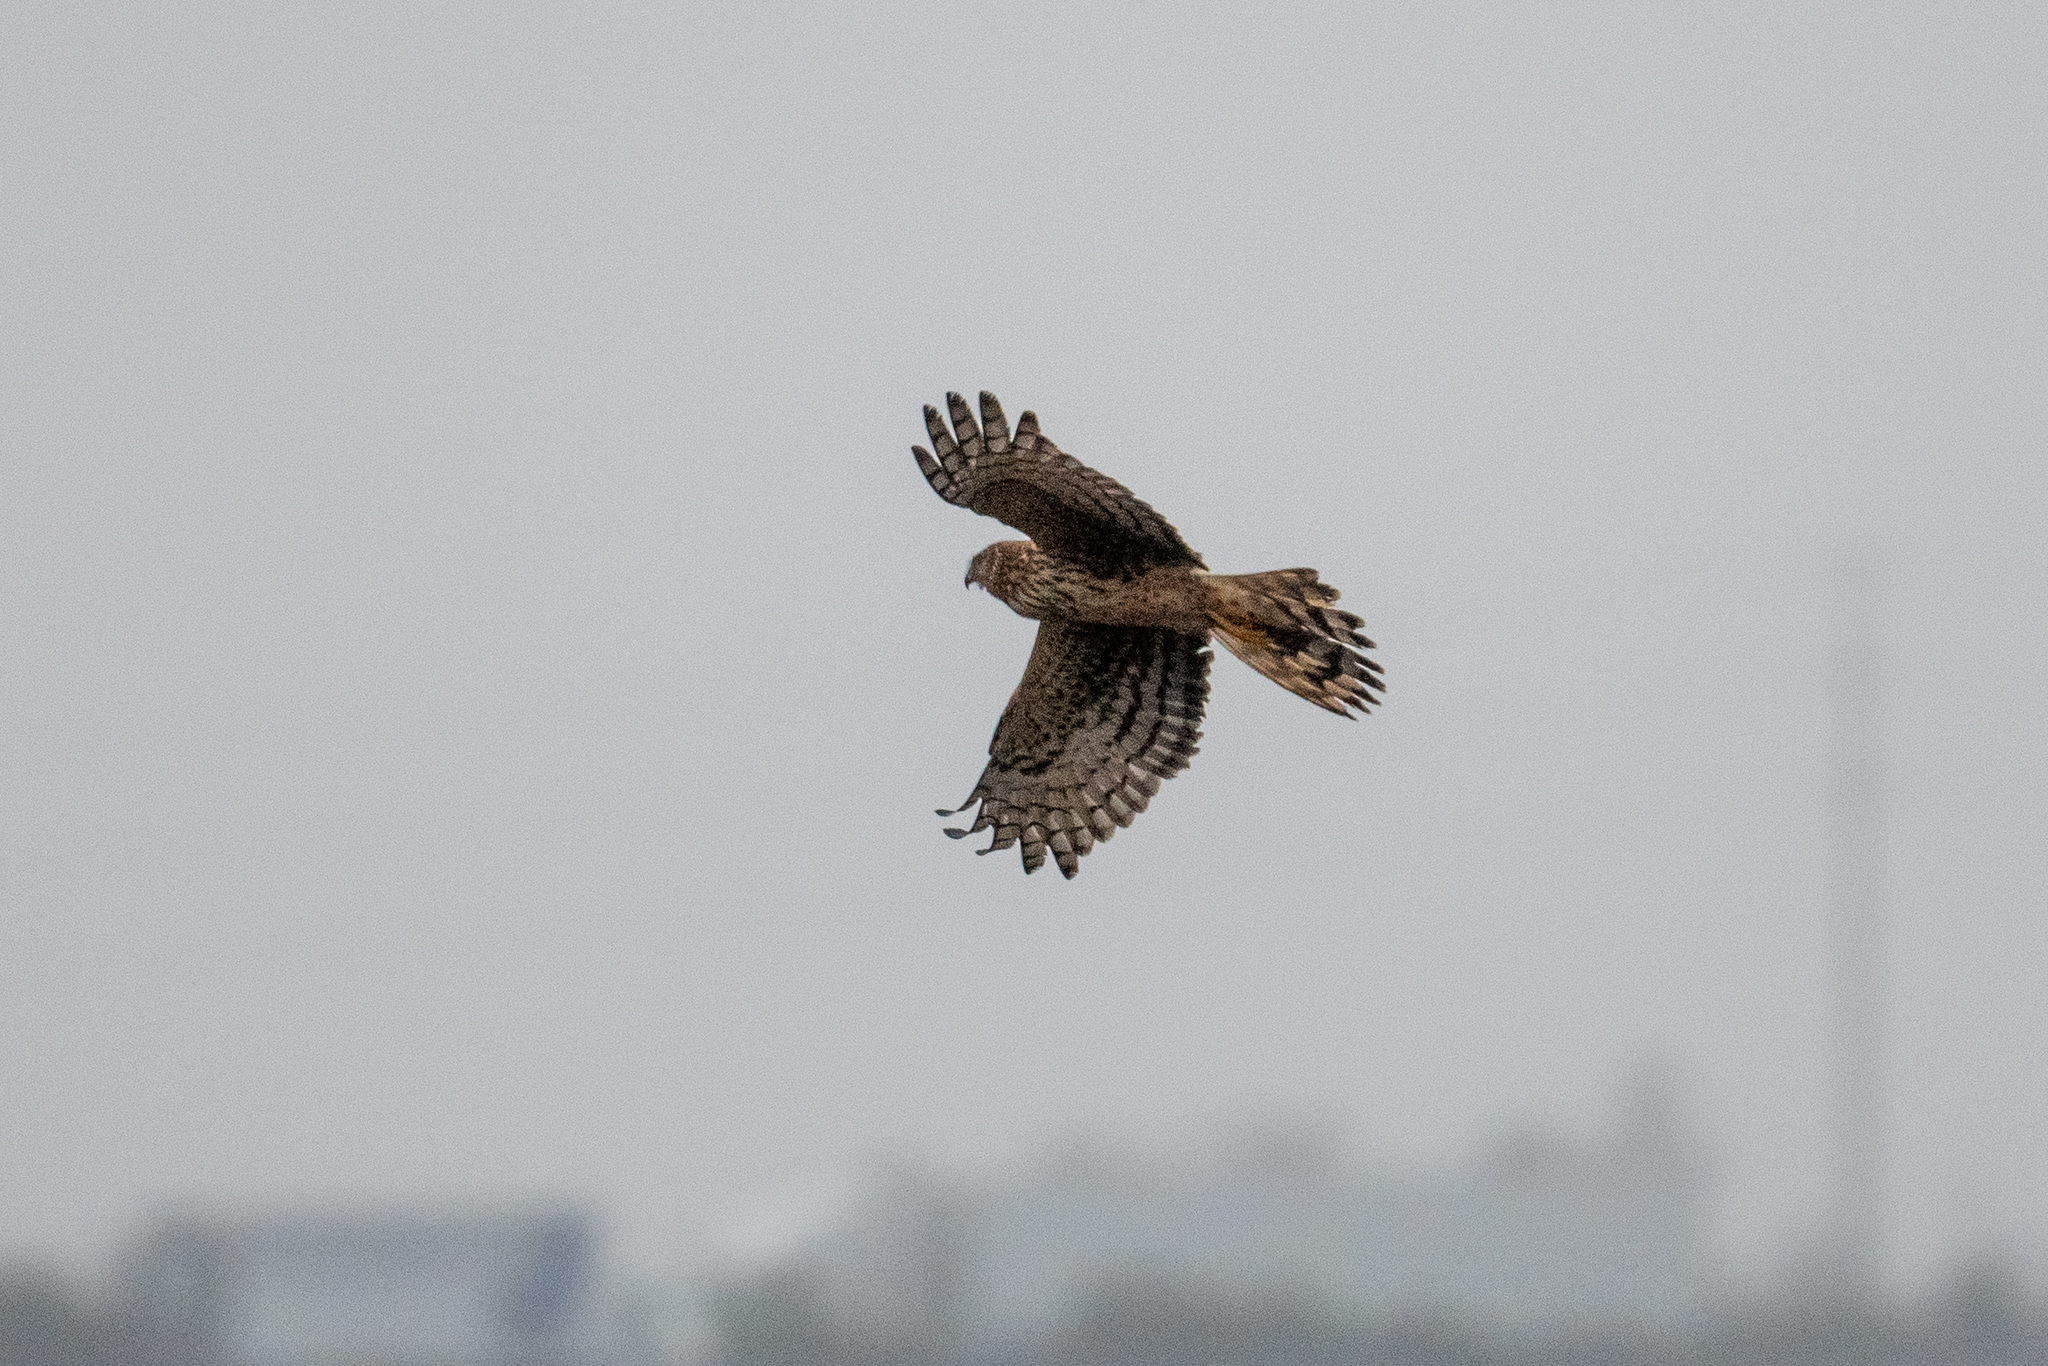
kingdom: Animalia
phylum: Chordata
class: Aves
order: Accipitriformes
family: Accipitridae
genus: Circus
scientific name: Circus cyaneus
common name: Hen harrier
